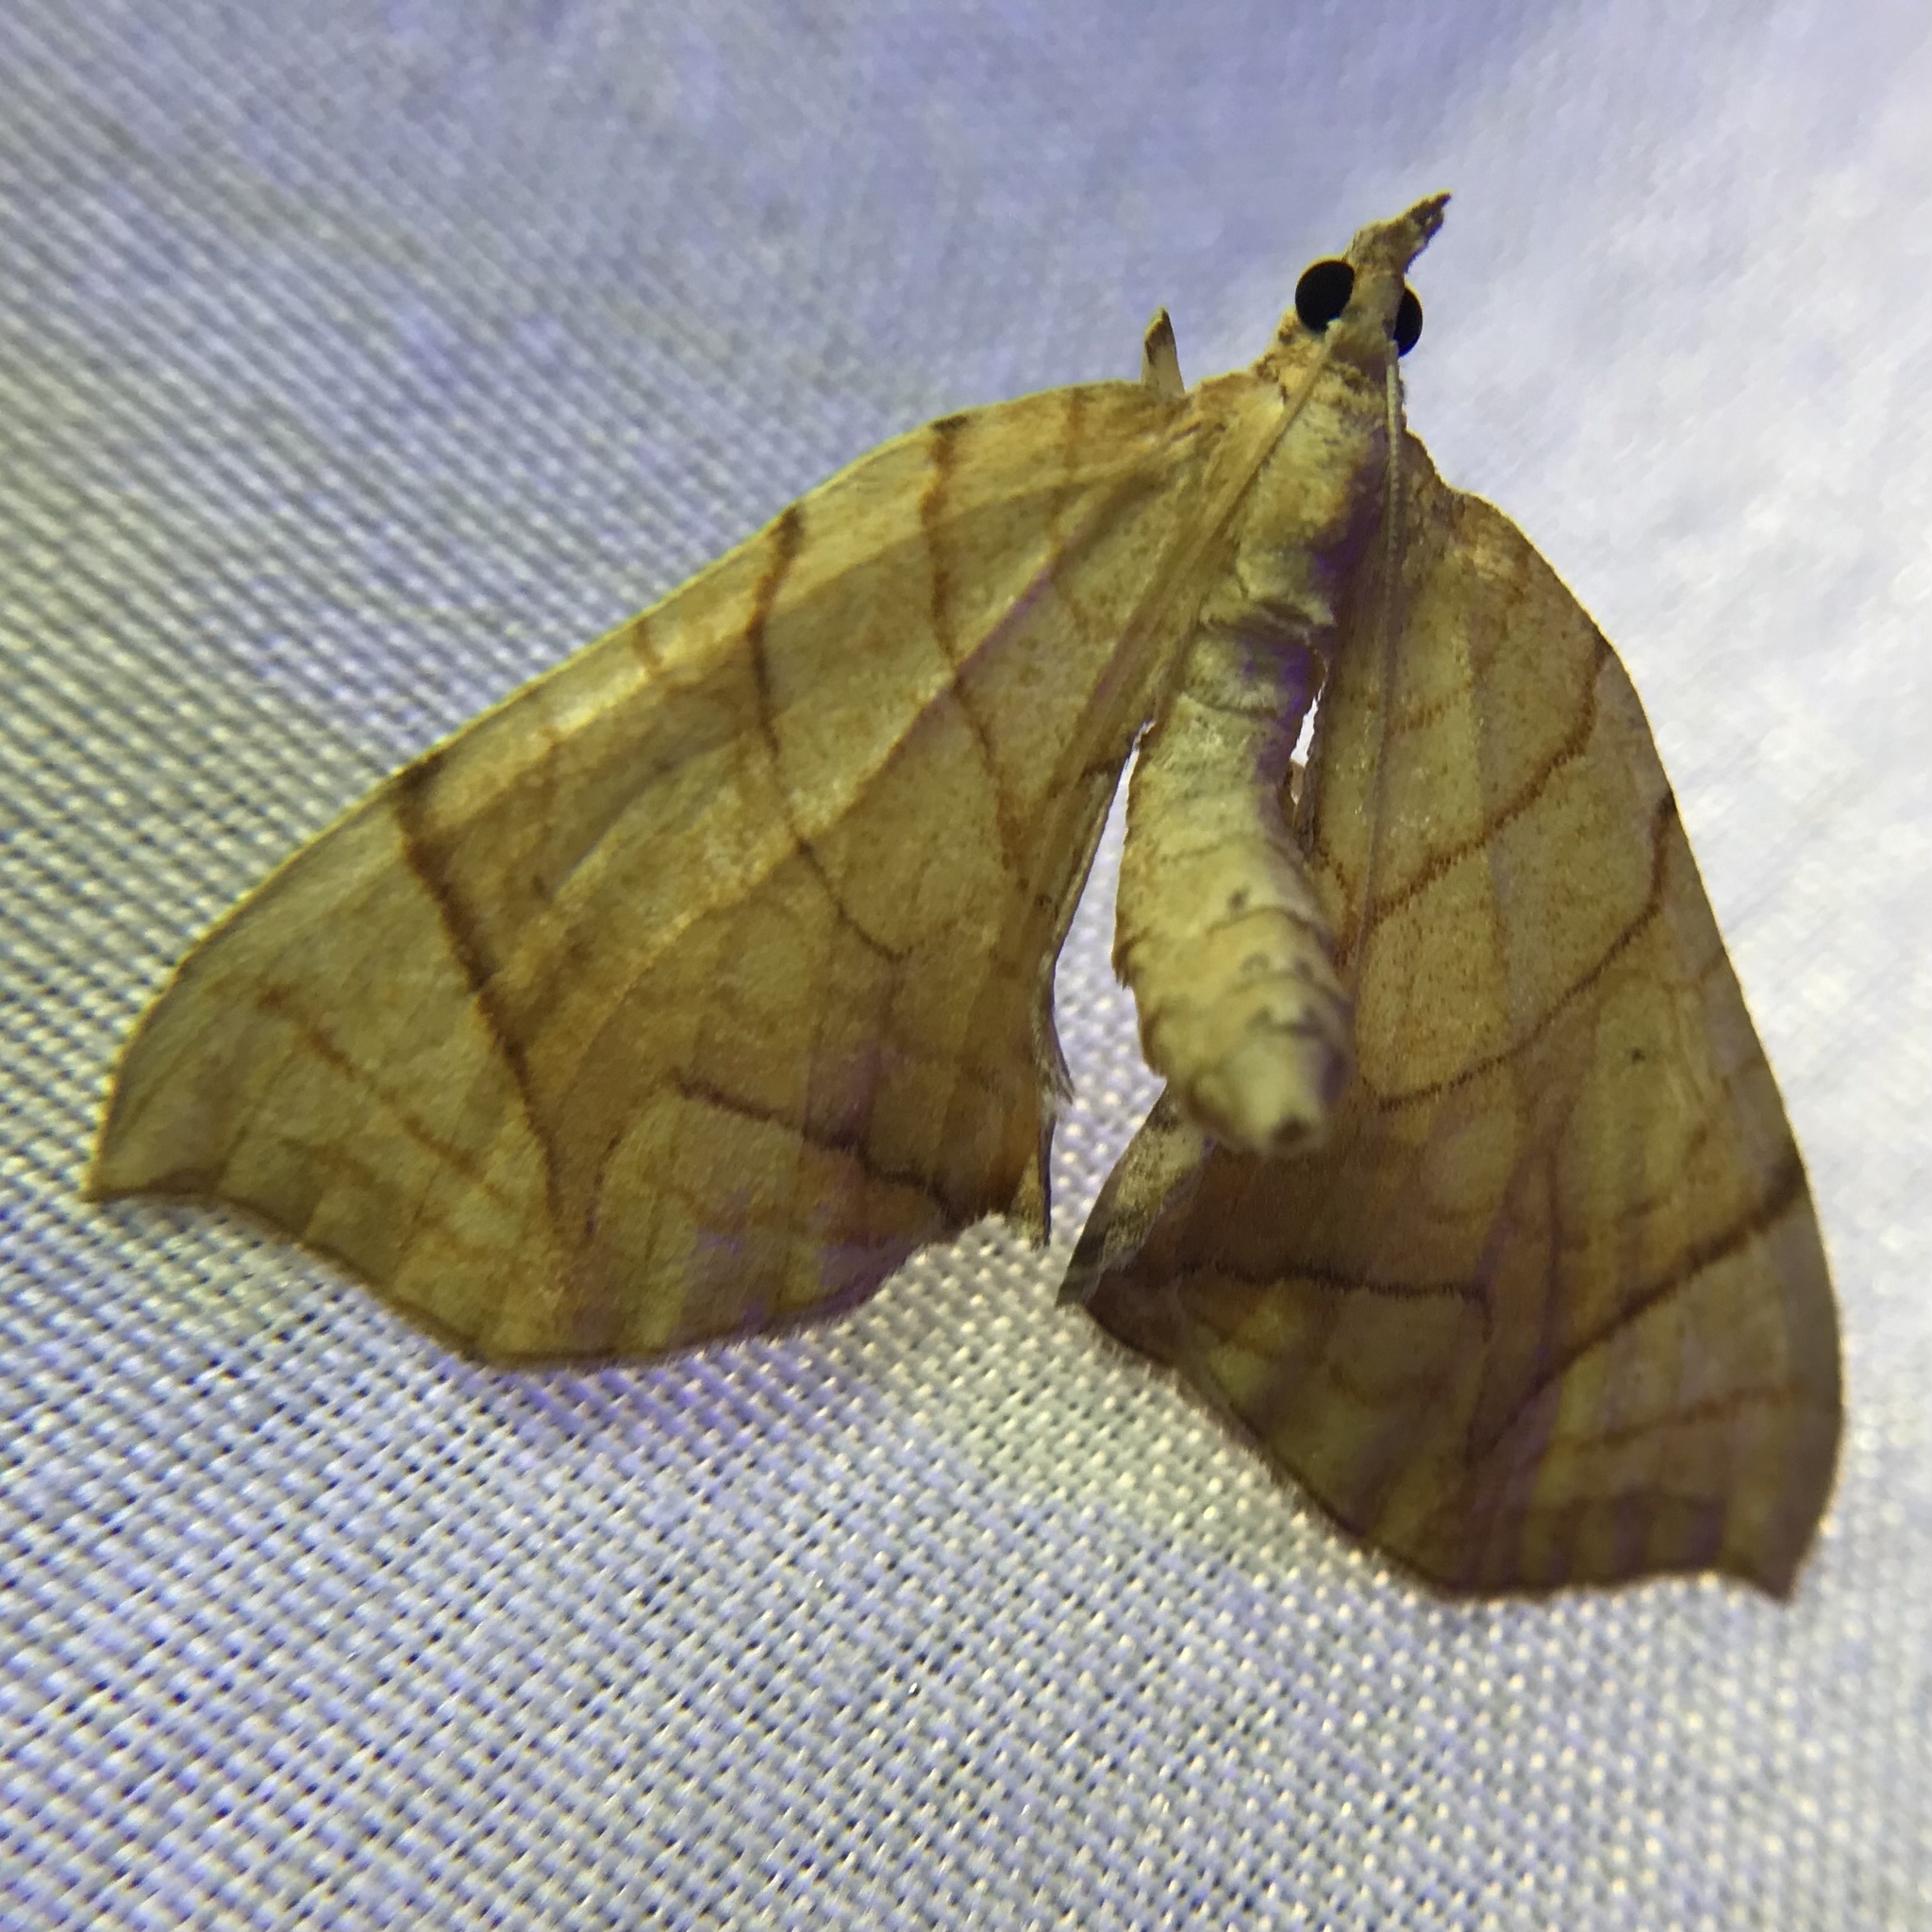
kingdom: Animalia
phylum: Arthropoda
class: Insecta
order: Lepidoptera
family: Geometridae
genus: Eulithis
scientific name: Eulithis
